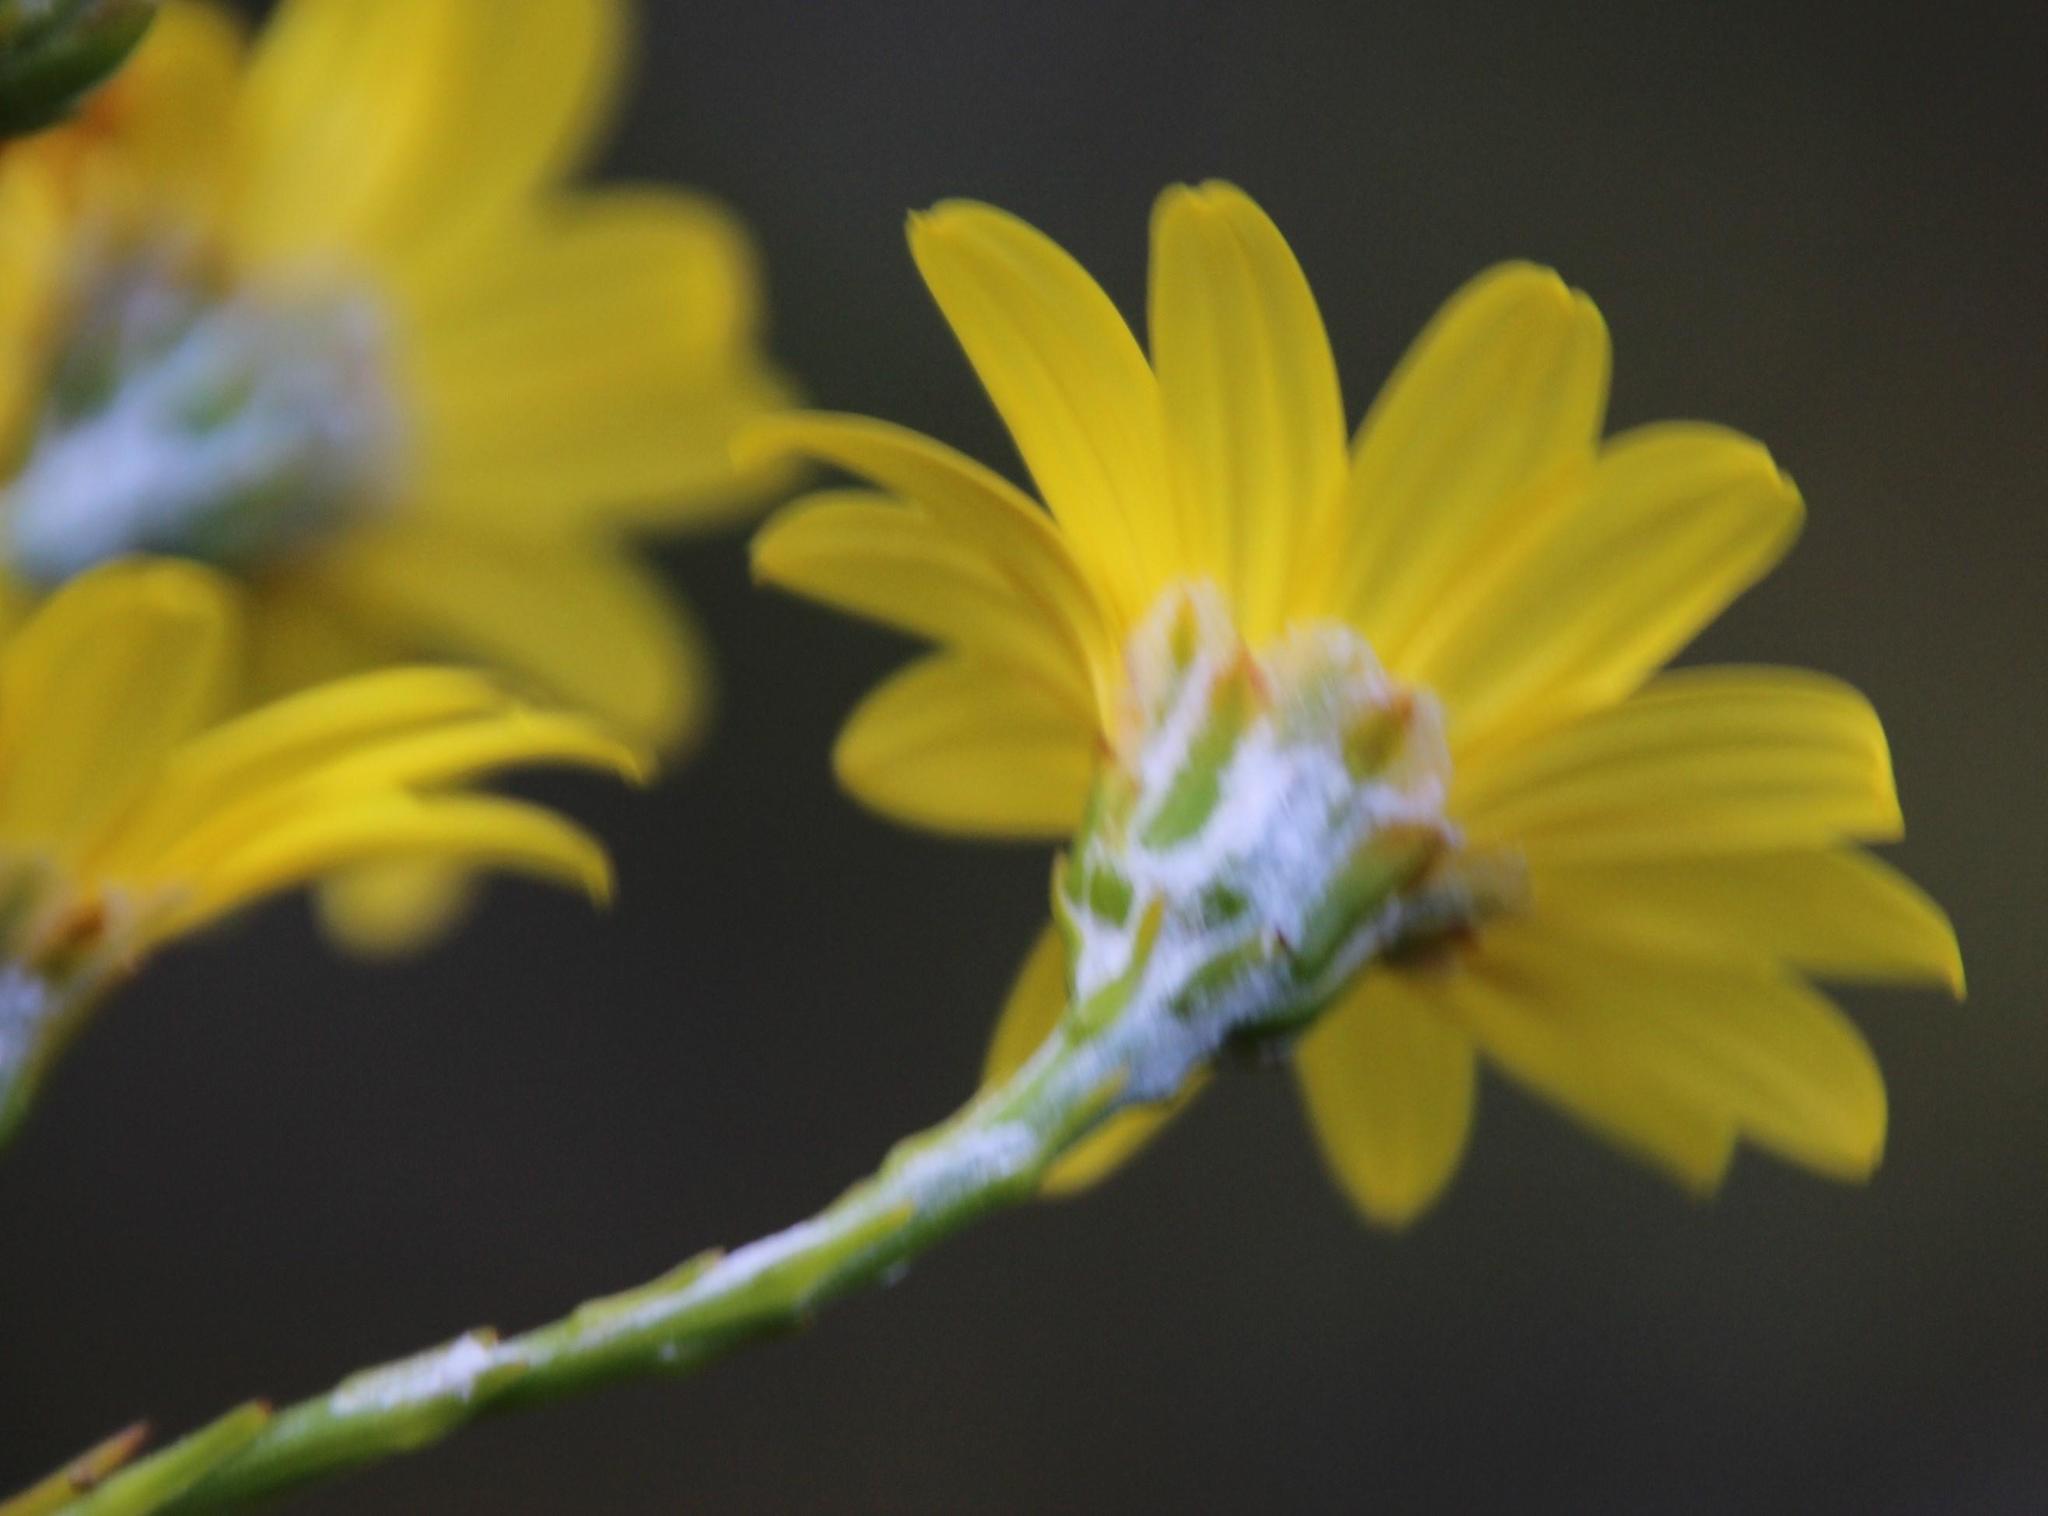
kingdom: Plantae
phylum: Tracheophyta
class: Magnoliopsida
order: Asterales
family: Asteraceae
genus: Osteospermum
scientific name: Osteospermum junceum
